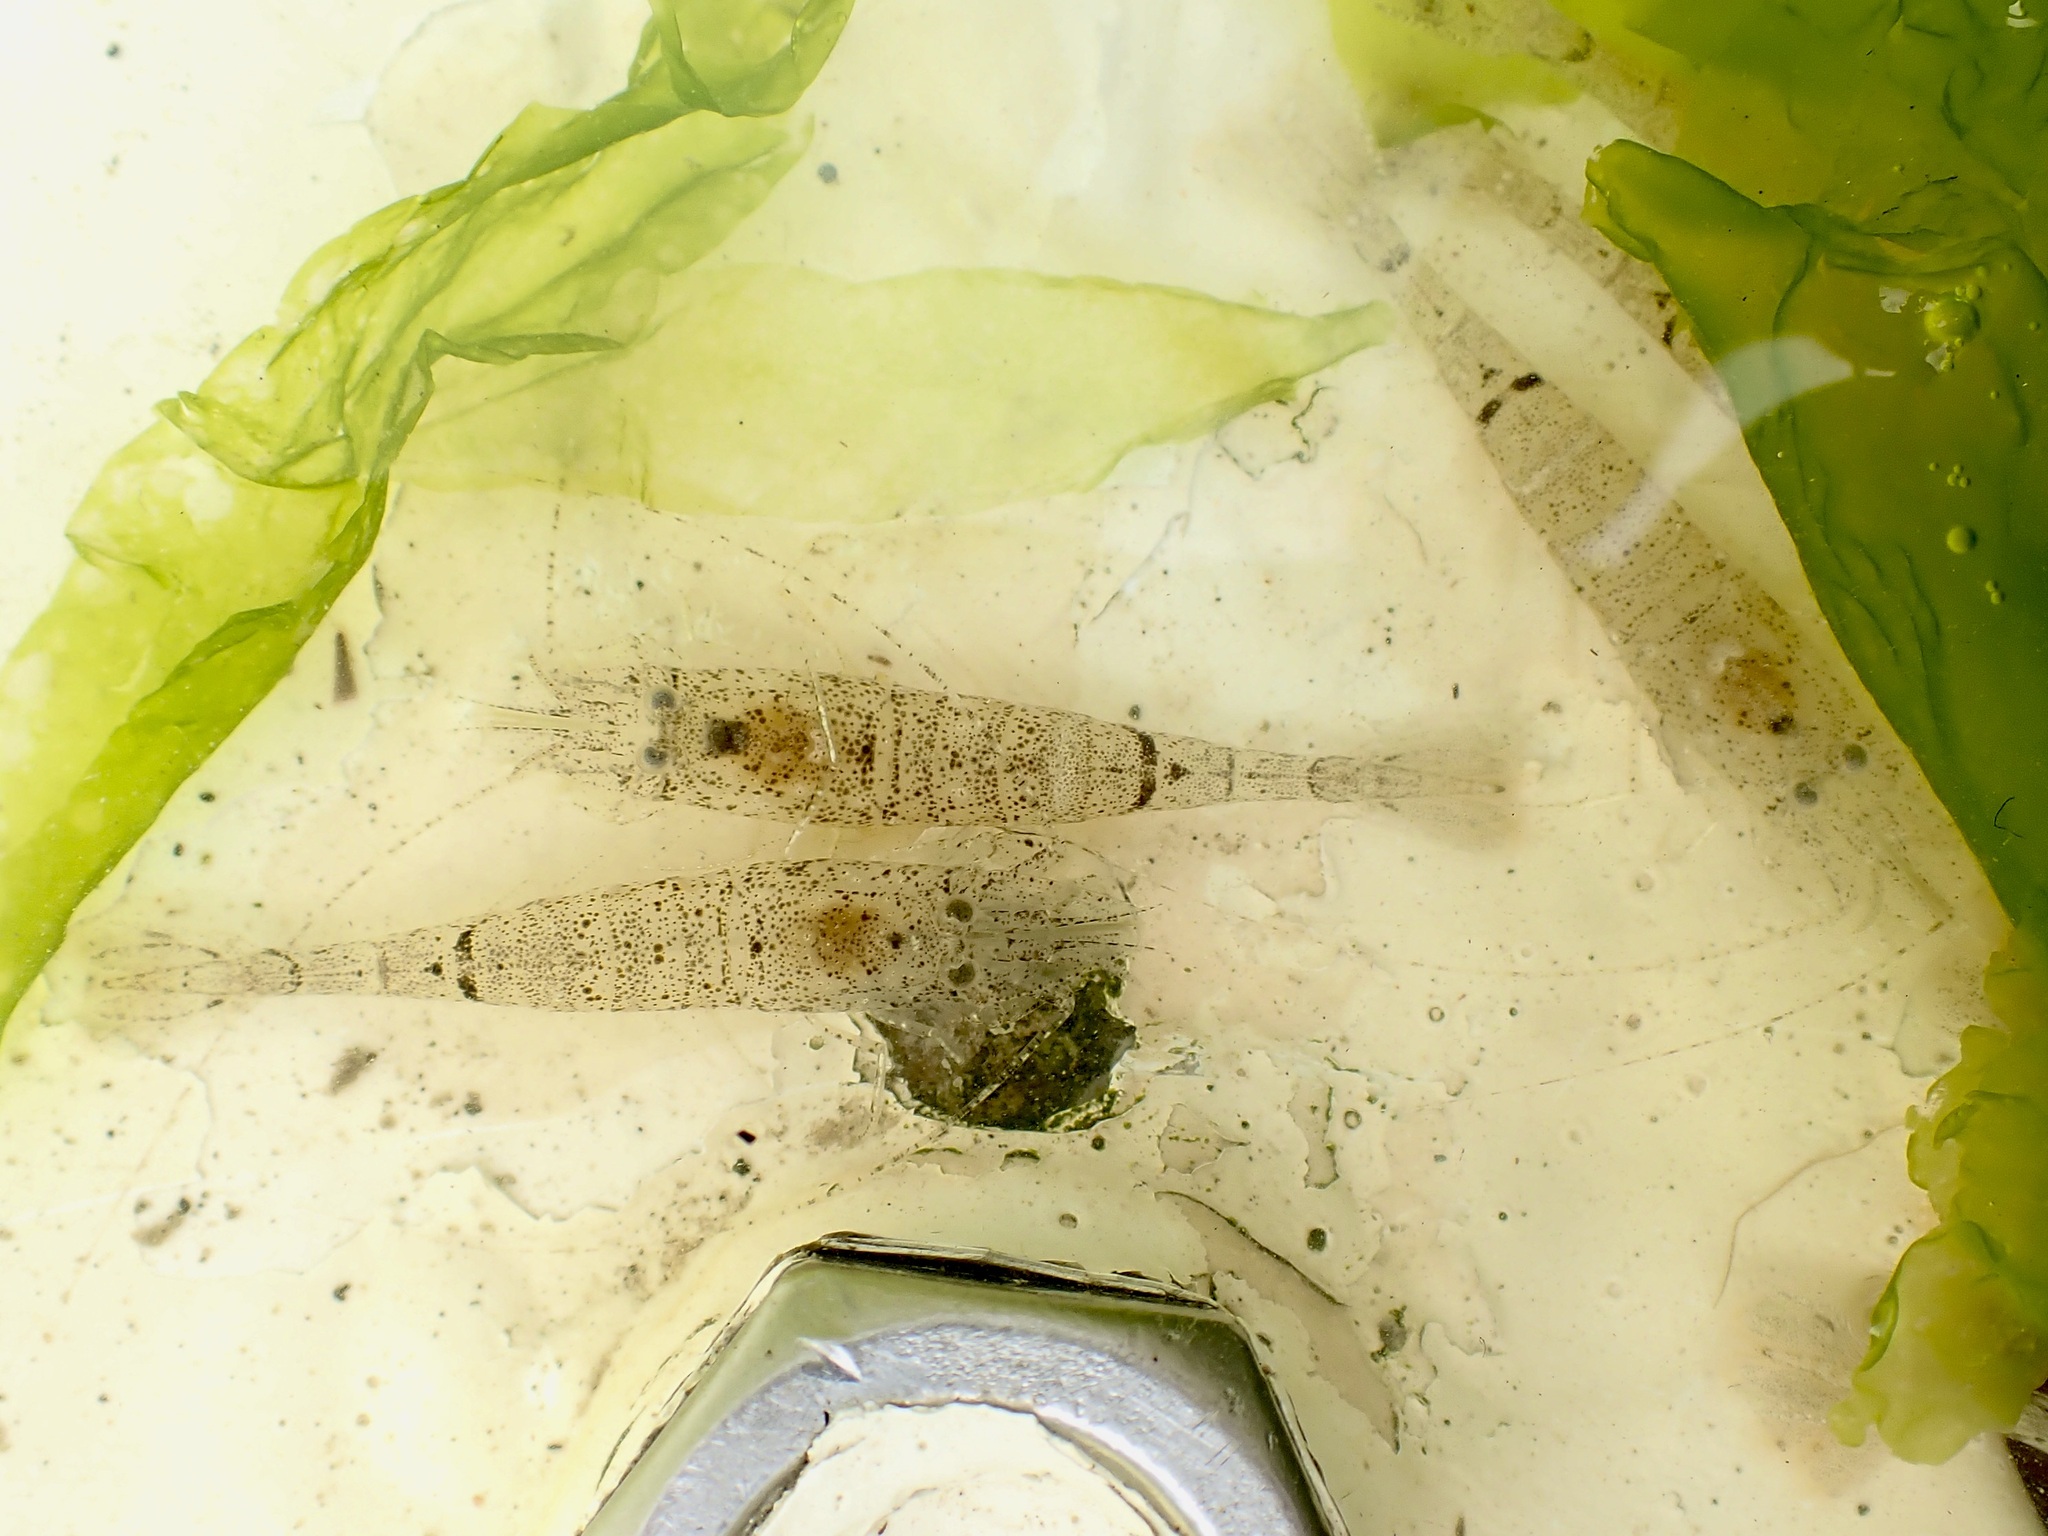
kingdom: Animalia
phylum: Arthropoda
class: Malacostraca
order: Decapoda
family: Crangonidae
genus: Crangon
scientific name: Crangon crangon
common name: Brown shrimp
